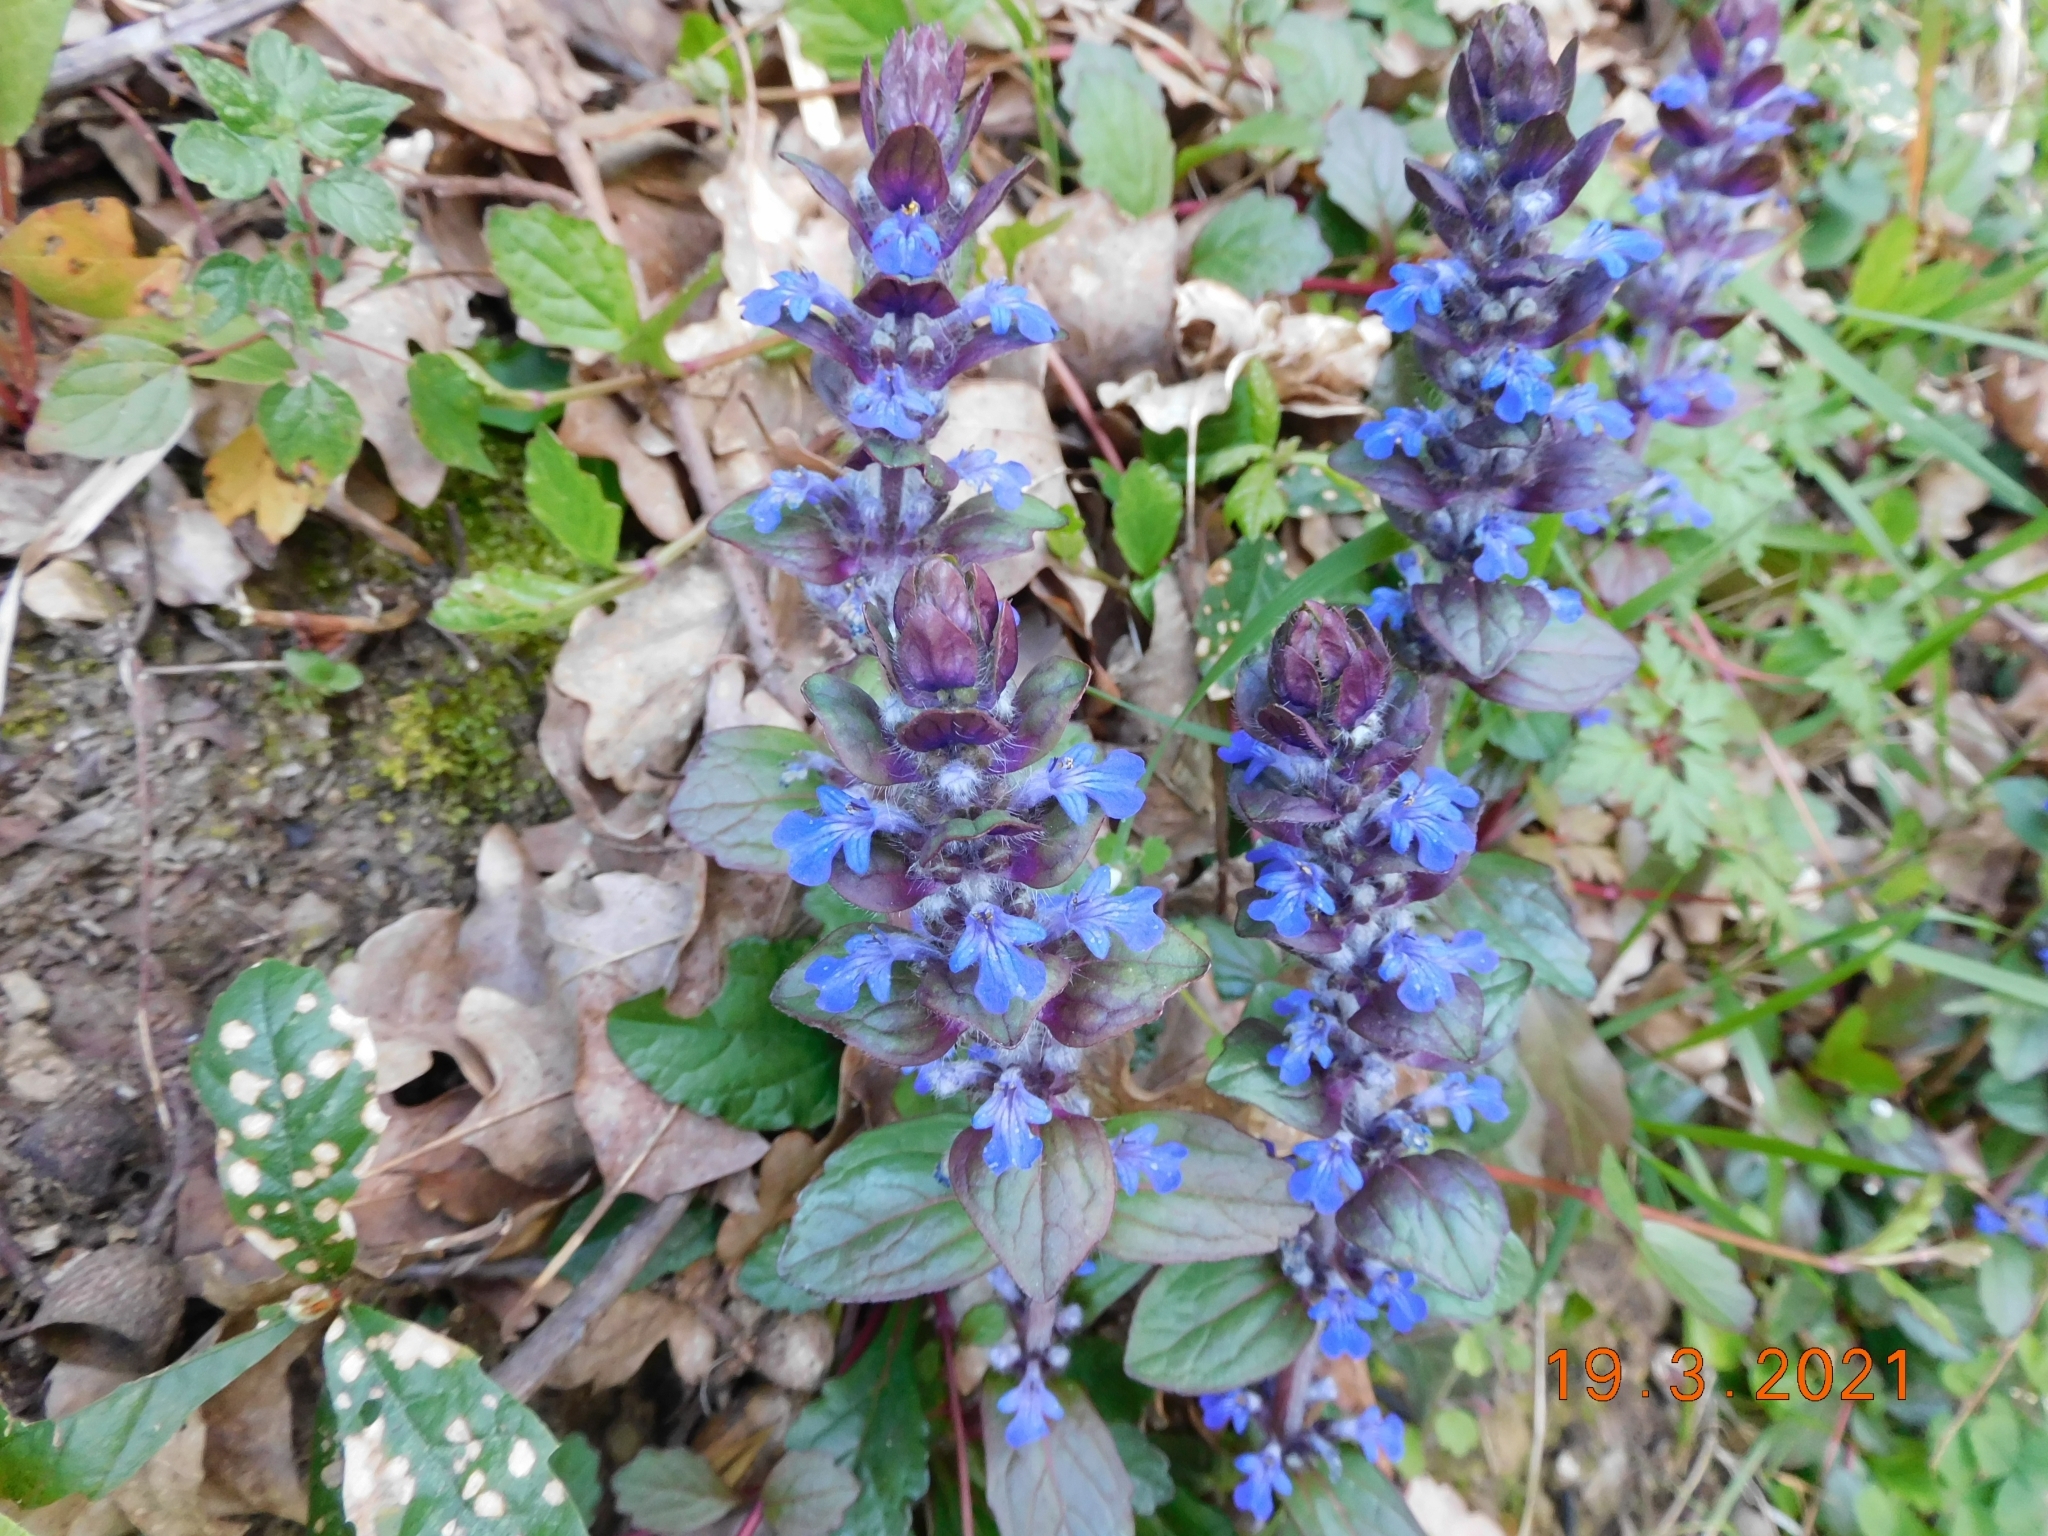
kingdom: Plantae
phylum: Tracheophyta
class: Magnoliopsida
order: Lamiales
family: Lamiaceae
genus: Ajuga
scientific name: Ajuga reptans
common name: Bugle
